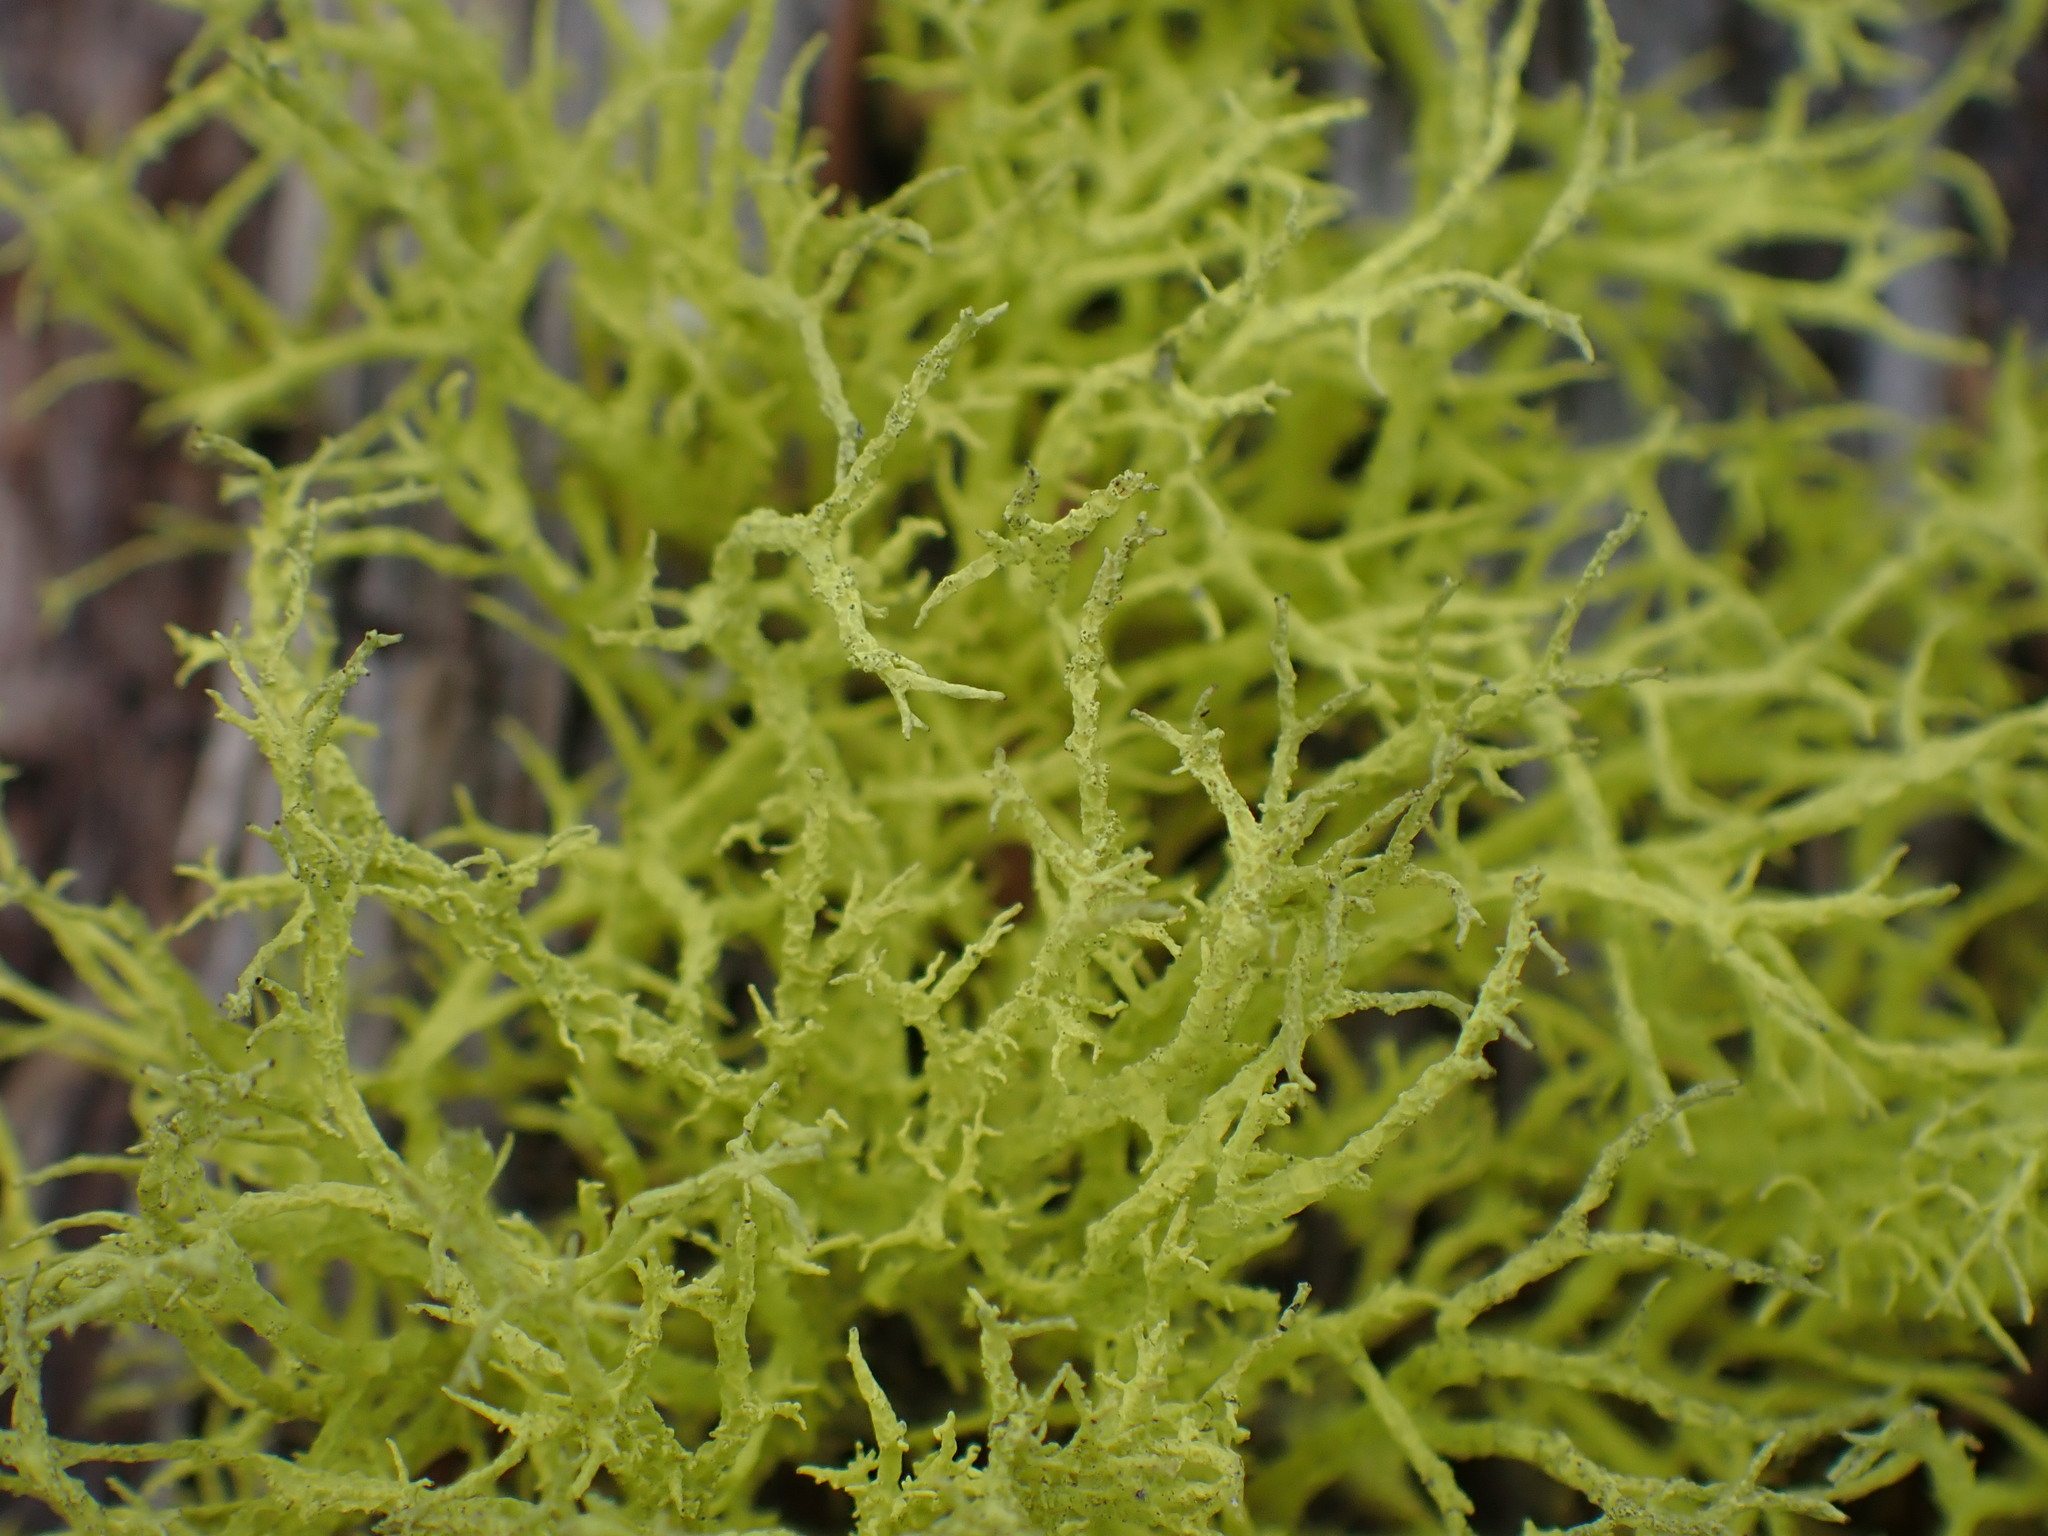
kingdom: Fungi
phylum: Ascomycota
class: Lecanoromycetes
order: Lecanorales
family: Parmeliaceae
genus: Letharia
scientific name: Letharia vulpina
